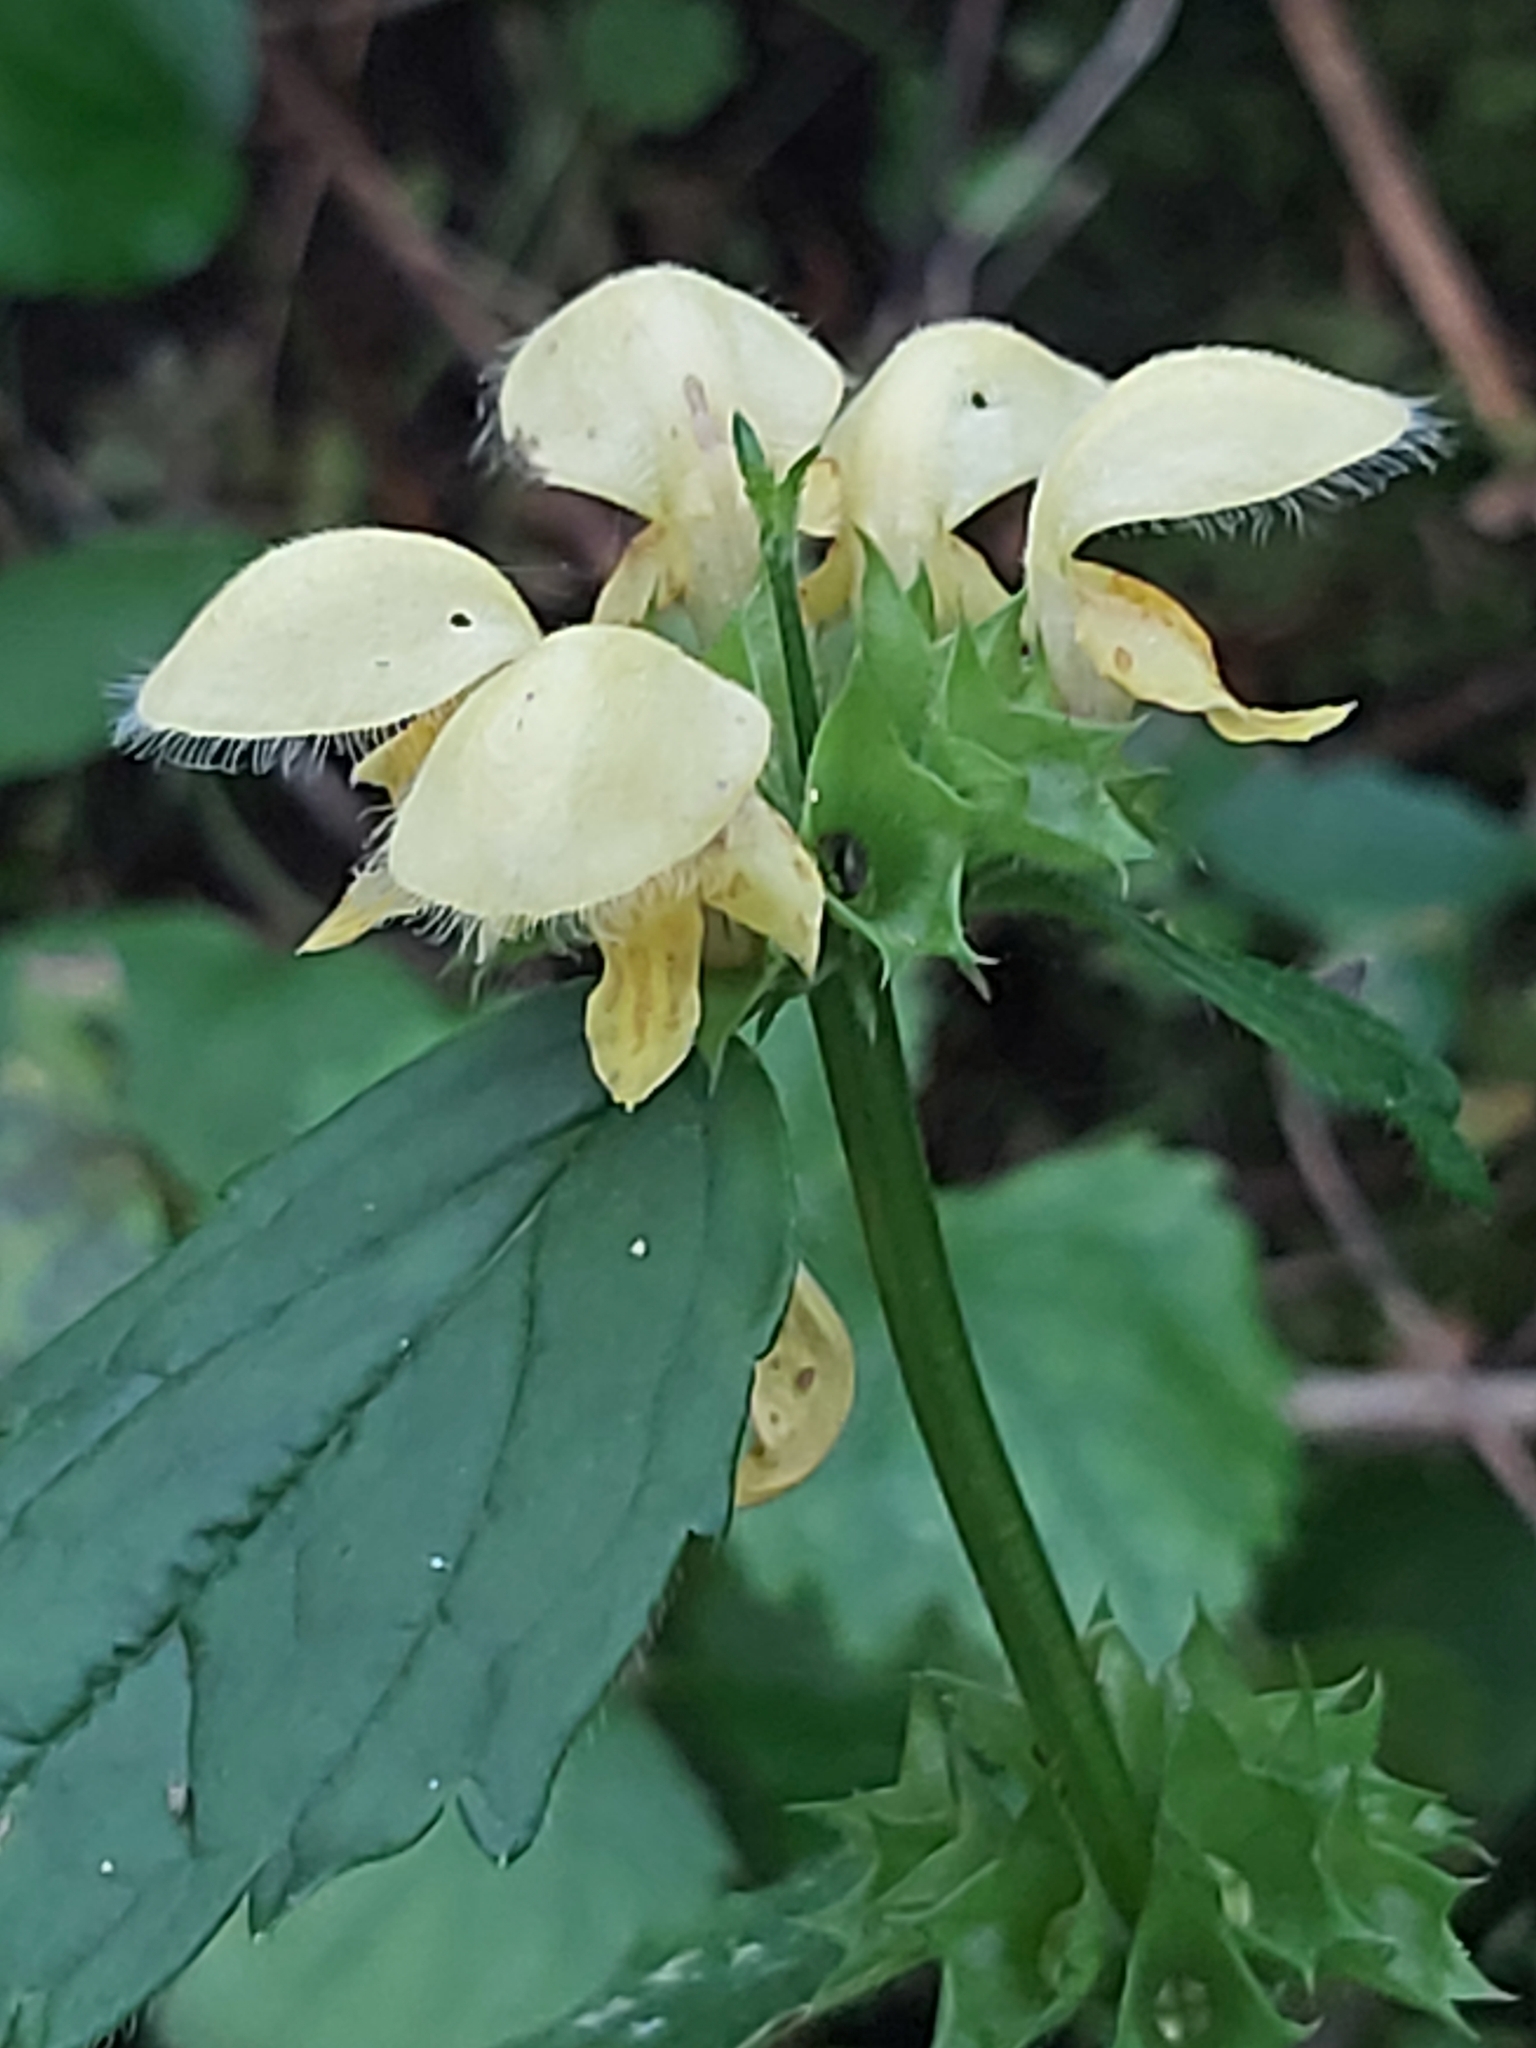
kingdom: Plantae
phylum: Tracheophyta
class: Magnoliopsida
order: Lamiales
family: Lamiaceae
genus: Lamium
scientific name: Lamium galeobdolon
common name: Yellow archangel
